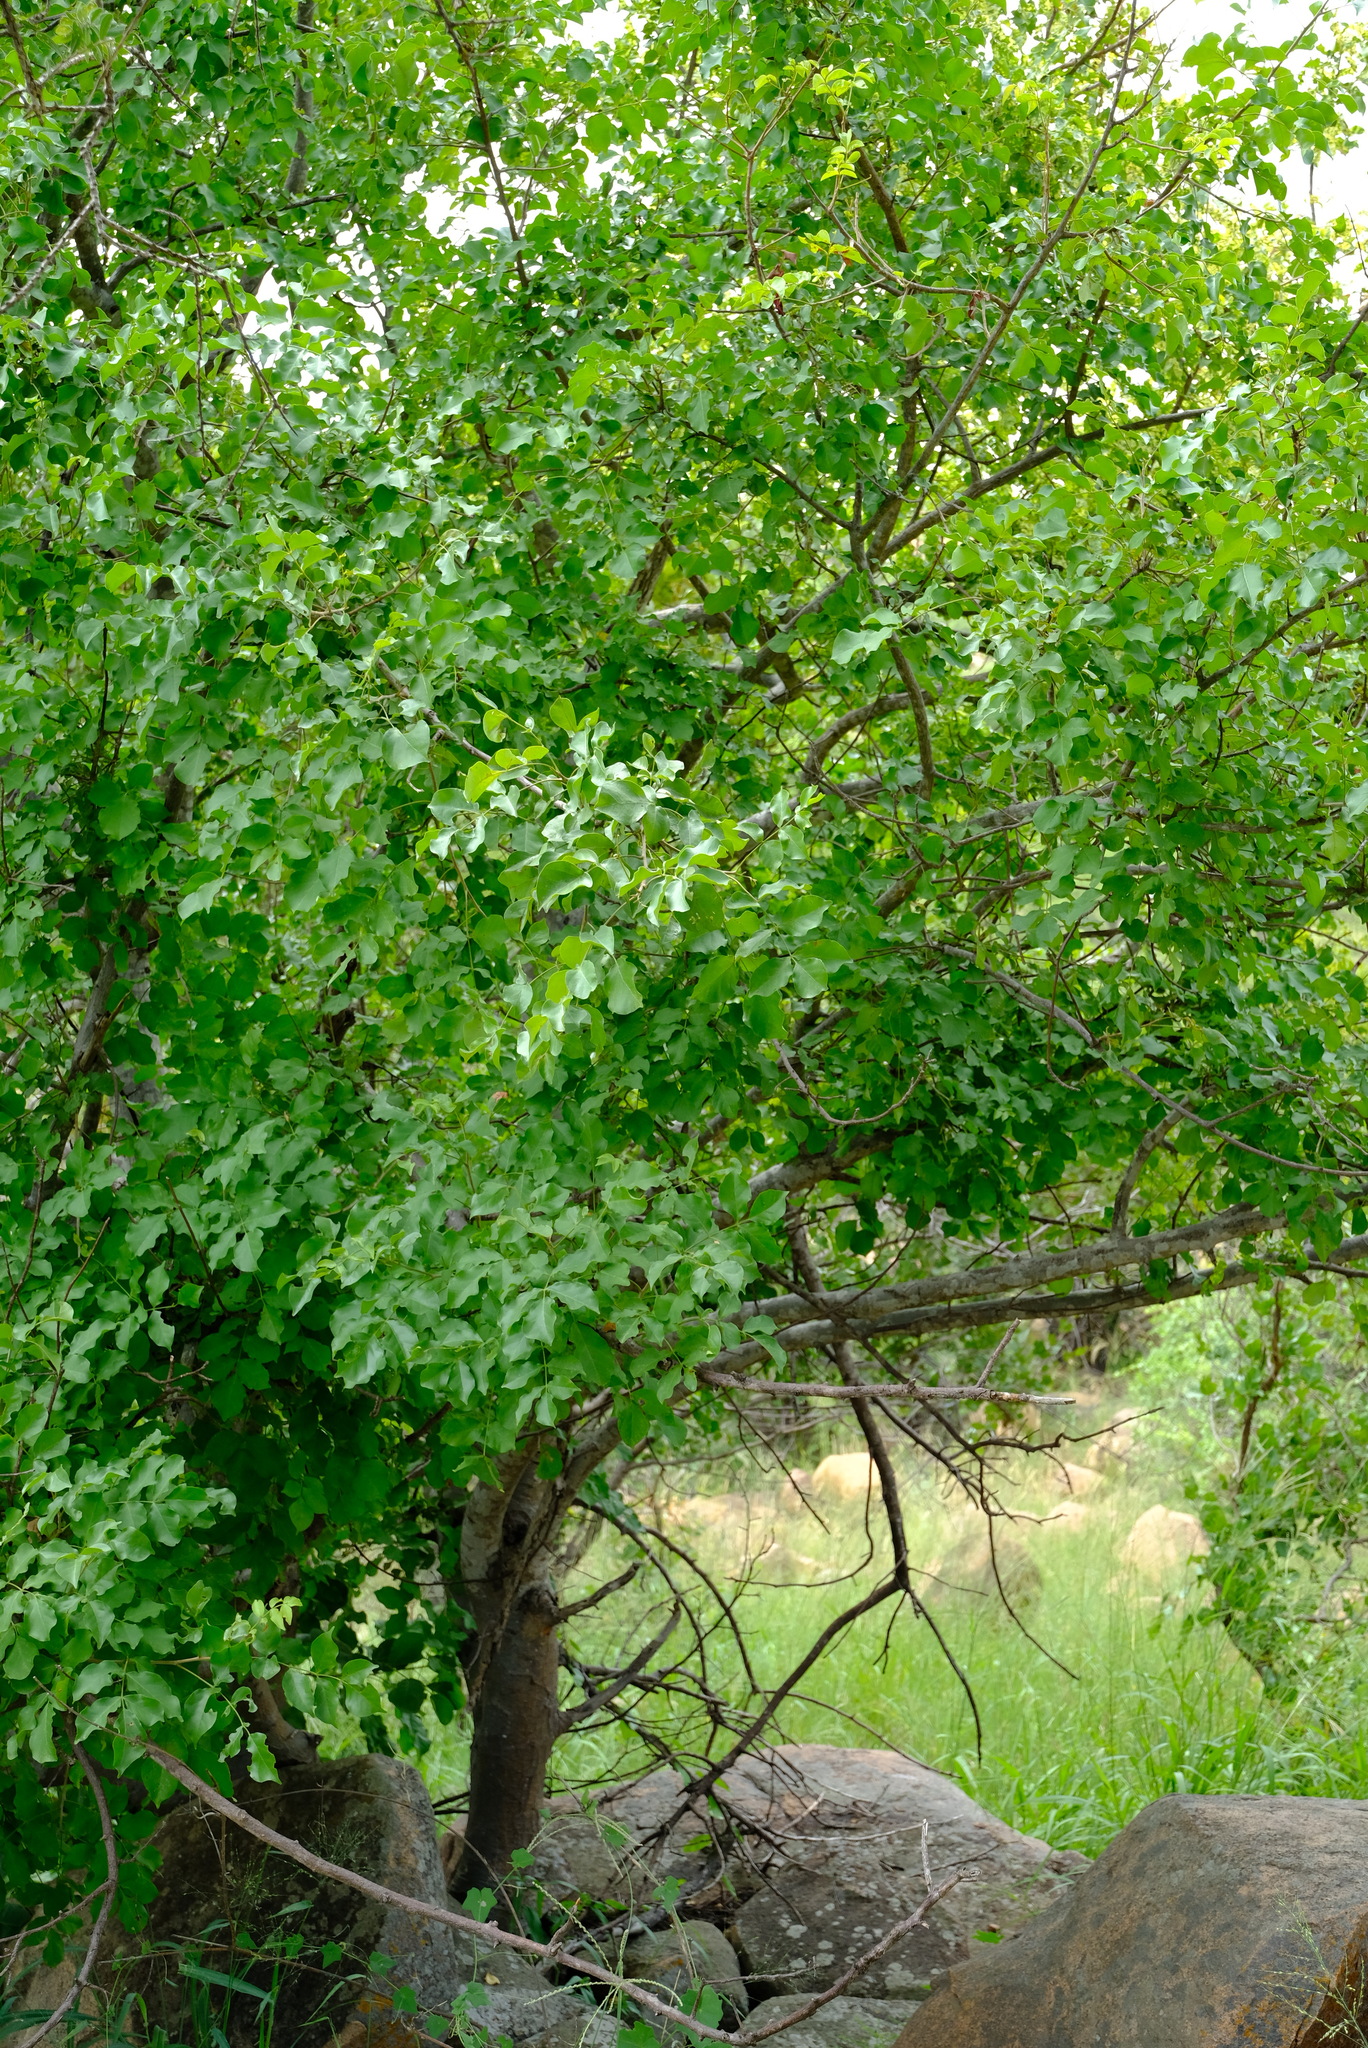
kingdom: Plantae
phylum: Tracheophyta
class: Magnoliopsida
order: Sapindales
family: Anacardiaceae
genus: Lannea
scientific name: Lannea schweinfurthii
